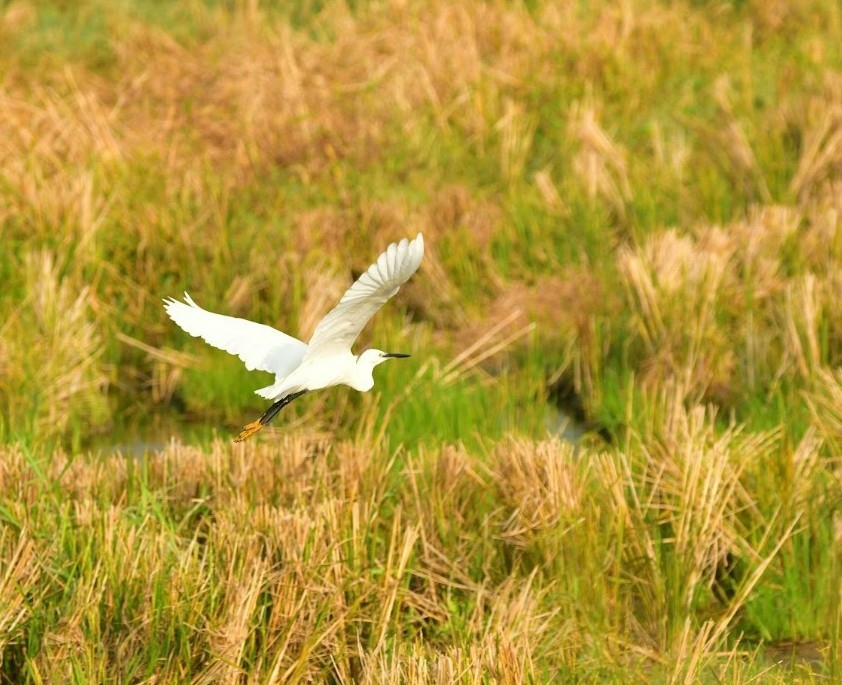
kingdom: Animalia
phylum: Chordata
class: Aves
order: Pelecaniformes
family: Ardeidae
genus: Egretta
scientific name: Egretta garzetta
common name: Little egret
